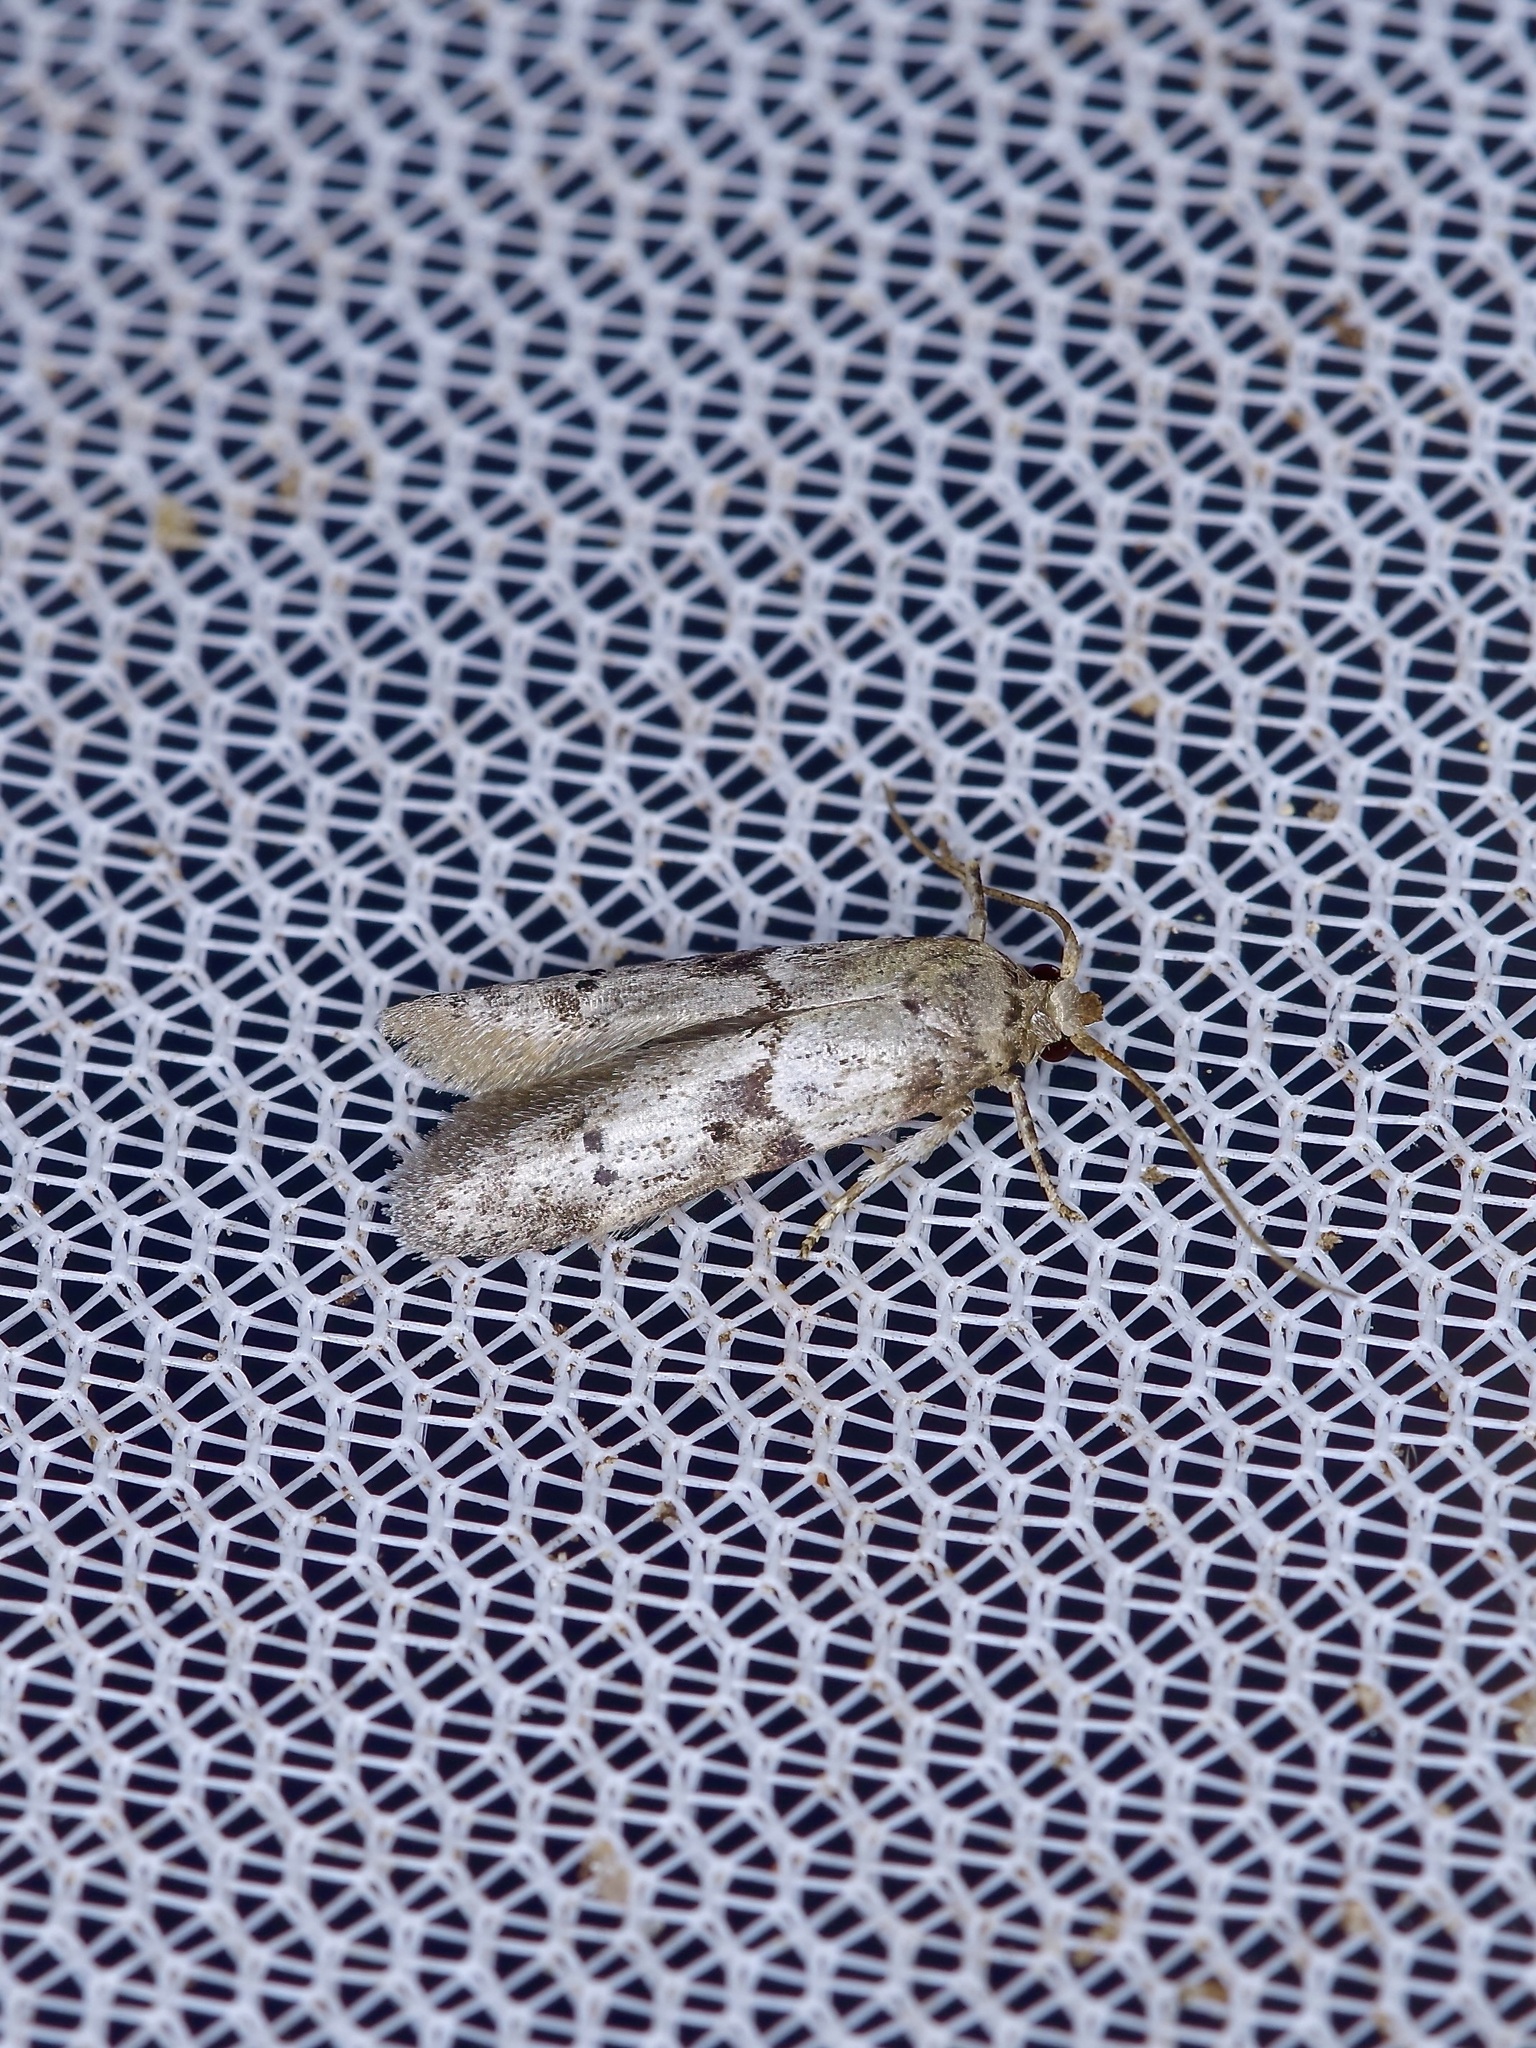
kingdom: Animalia
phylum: Arthropoda
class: Insecta
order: Lepidoptera
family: Blastobasidae
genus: Blastobasis
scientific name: Blastobasis glandulella
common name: Acorn moth
